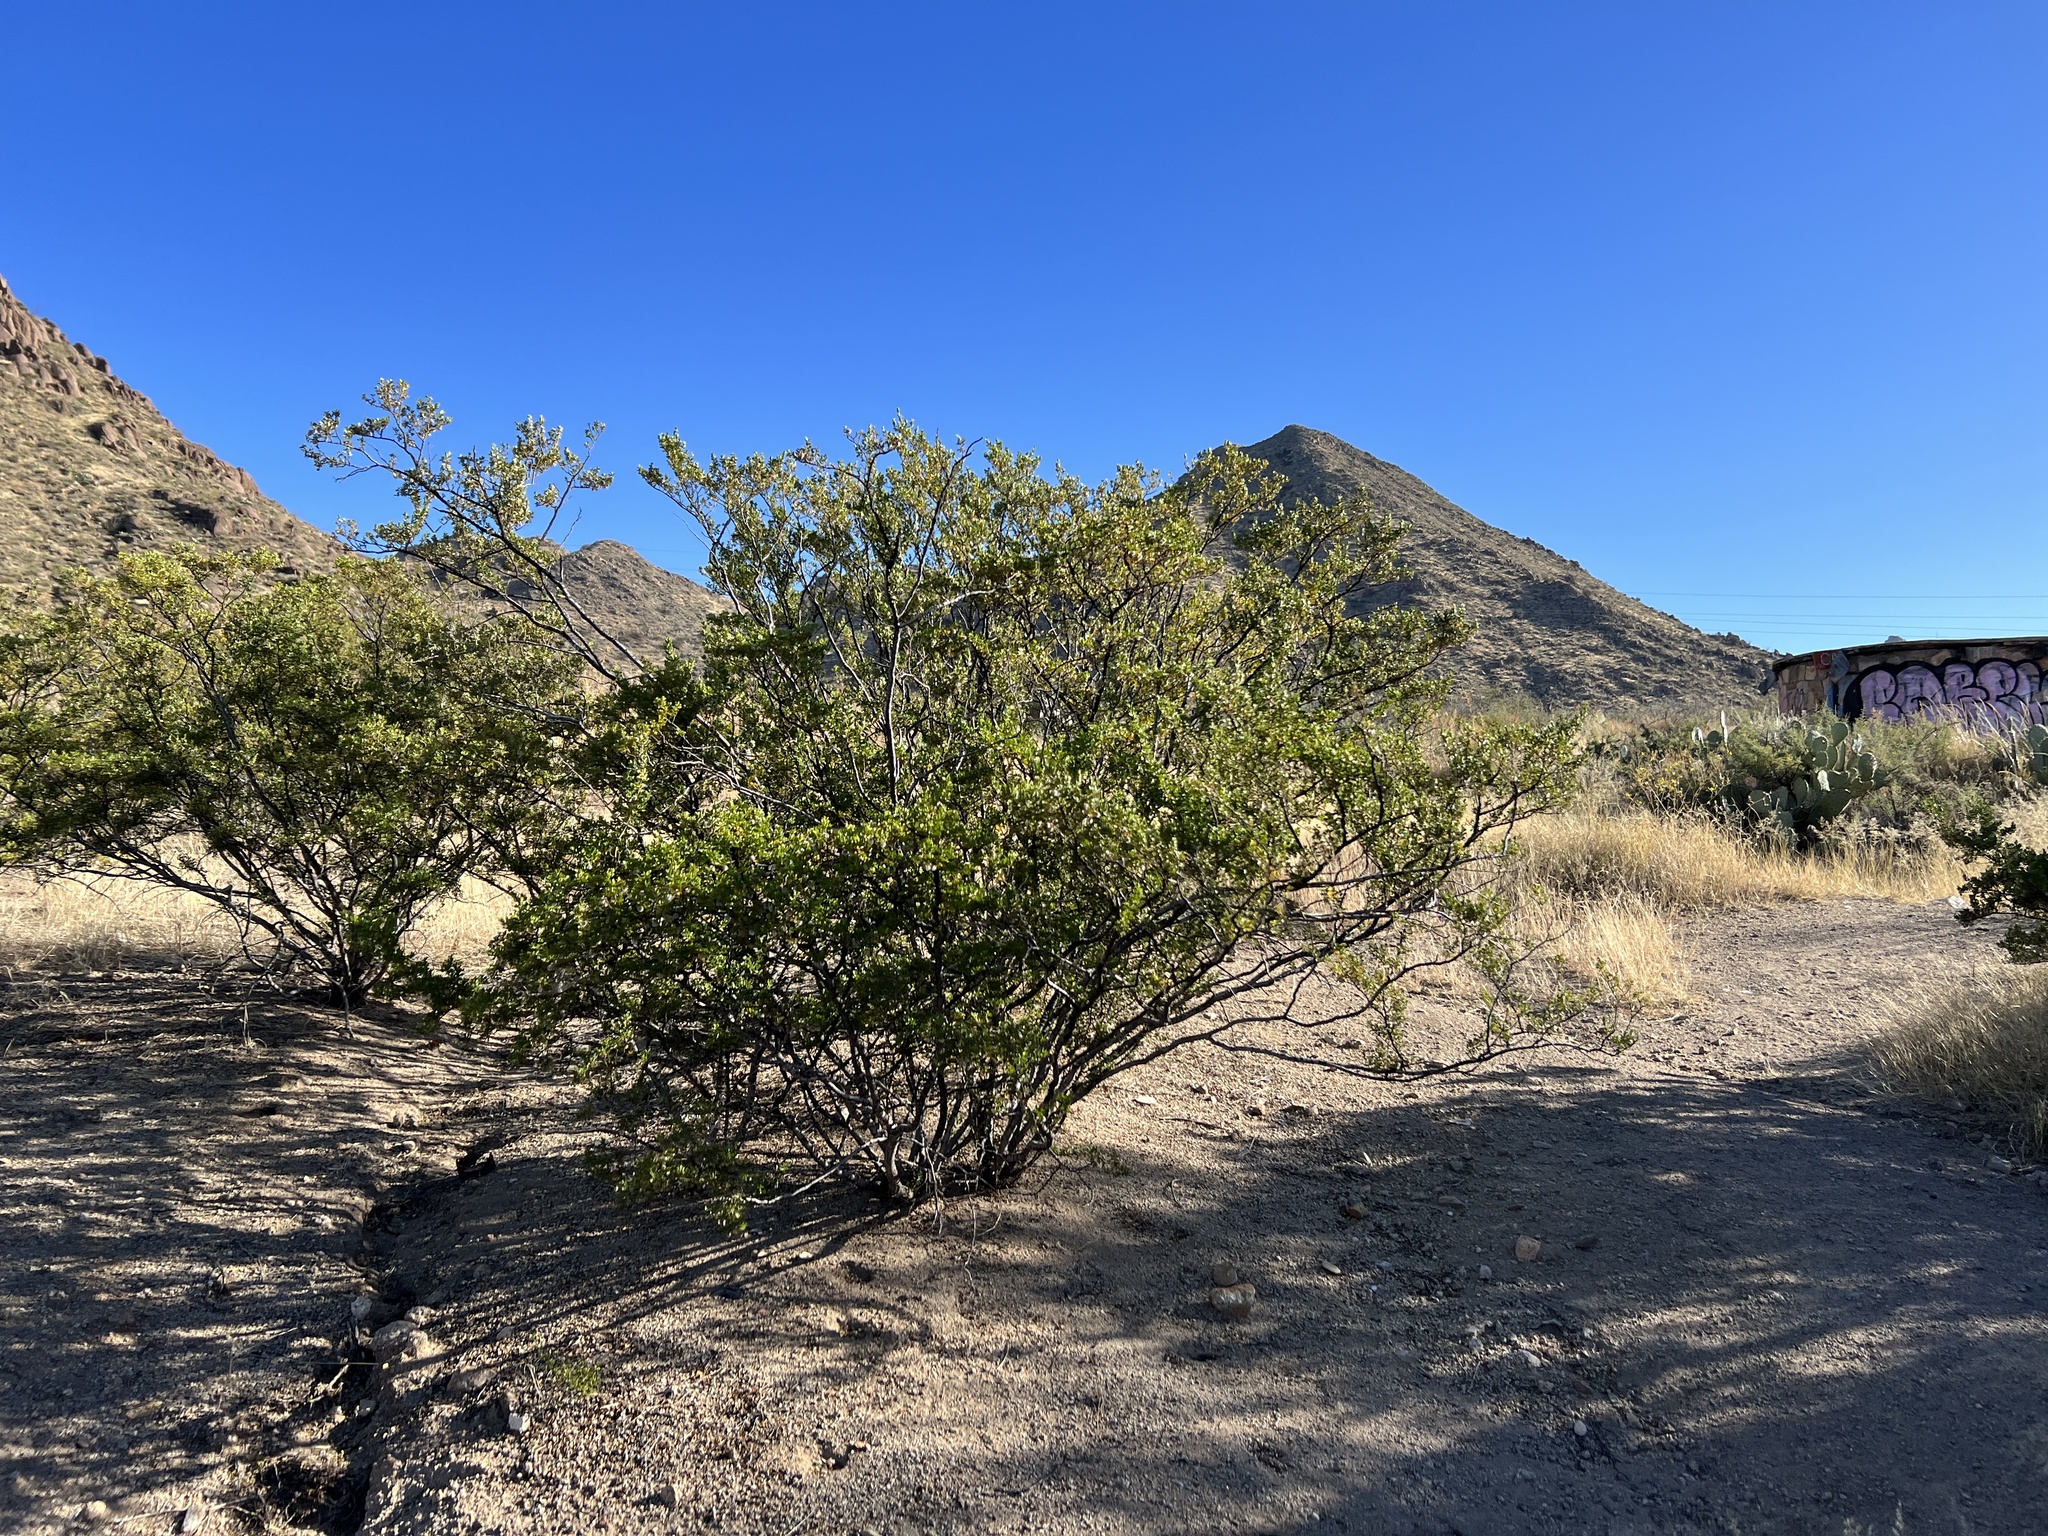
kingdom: Plantae
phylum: Tracheophyta
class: Magnoliopsida
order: Zygophyllales
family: Zygophyllaceae
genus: Larrea
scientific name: Larrea tridentata
